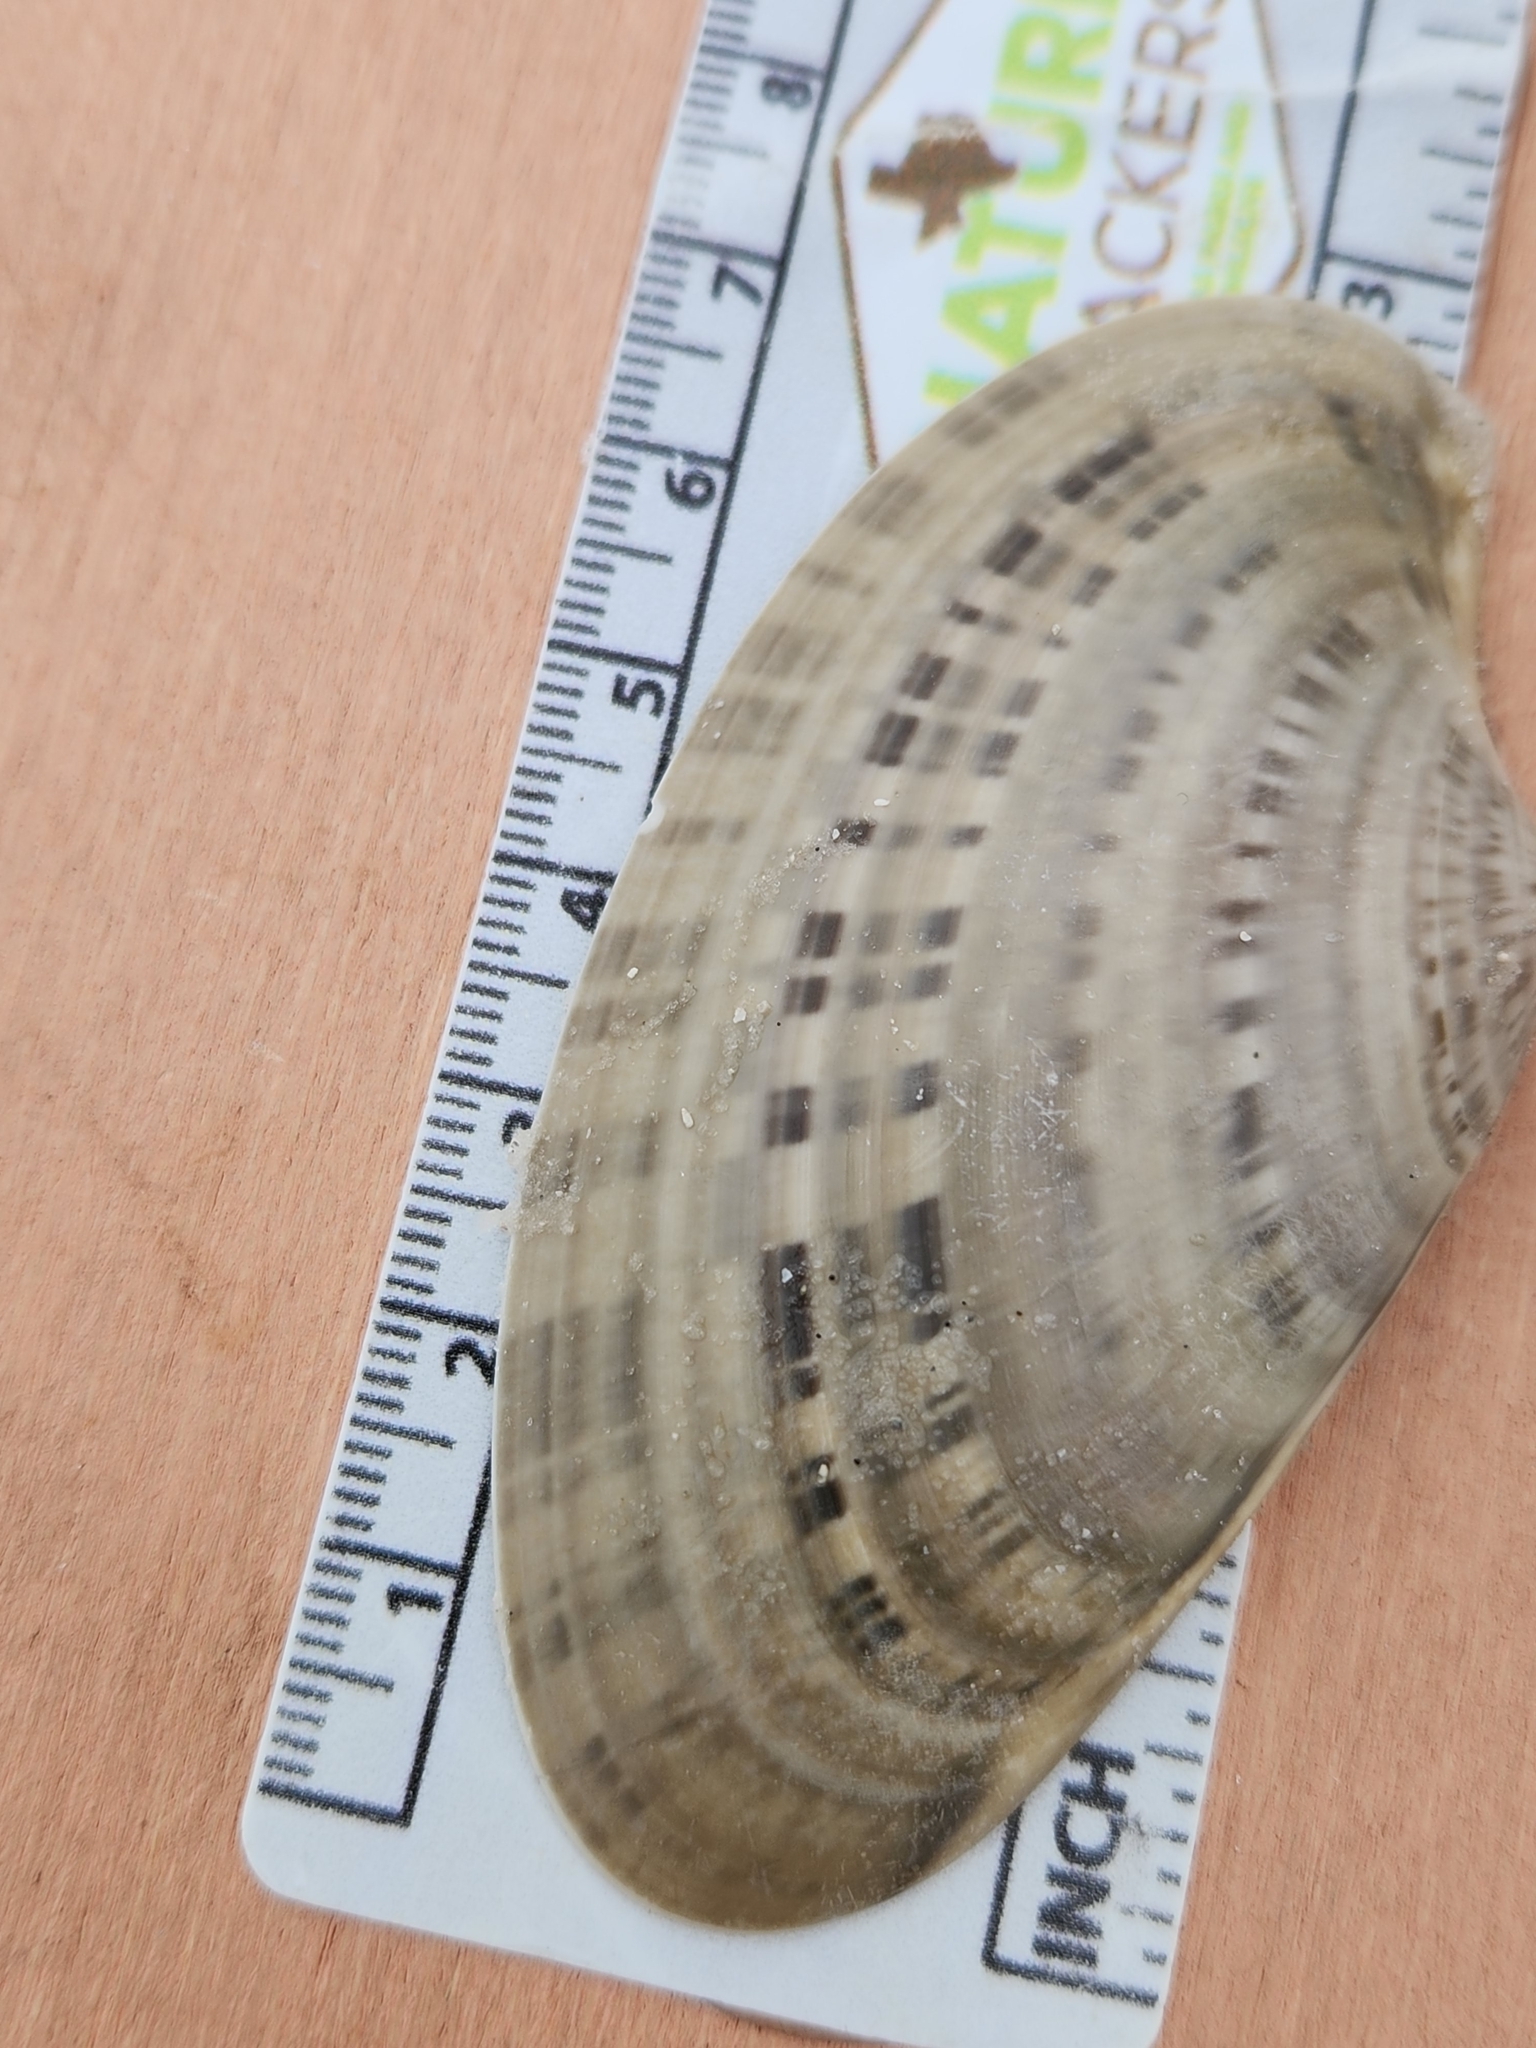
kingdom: Animalia
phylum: Mollusca
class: Bivalvia
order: Venerida
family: Veneridae
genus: Macrocallista
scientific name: Macrocallista nimbosa
